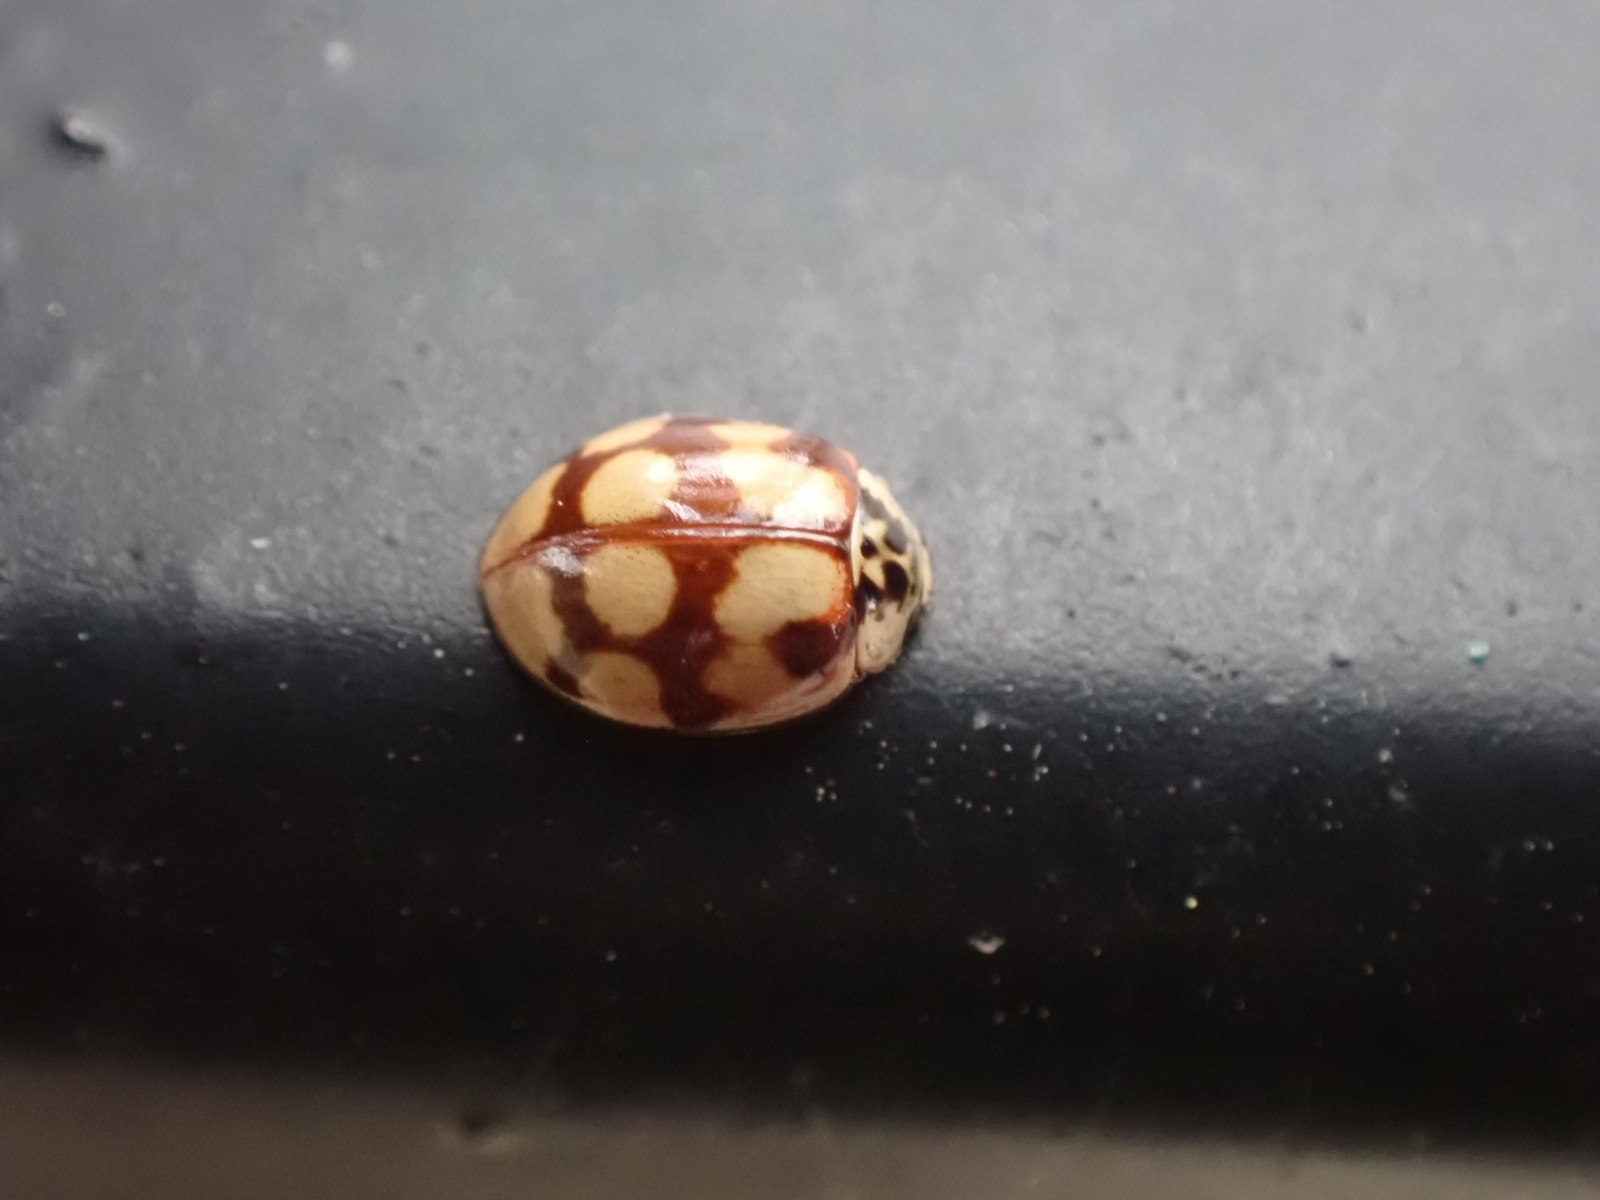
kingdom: Animalia
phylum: Arthropoda
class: Insecta
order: Coleoptera
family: Coccinellidae
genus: Adalia
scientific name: Adalia decempunctata
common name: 10-spot ladybird
